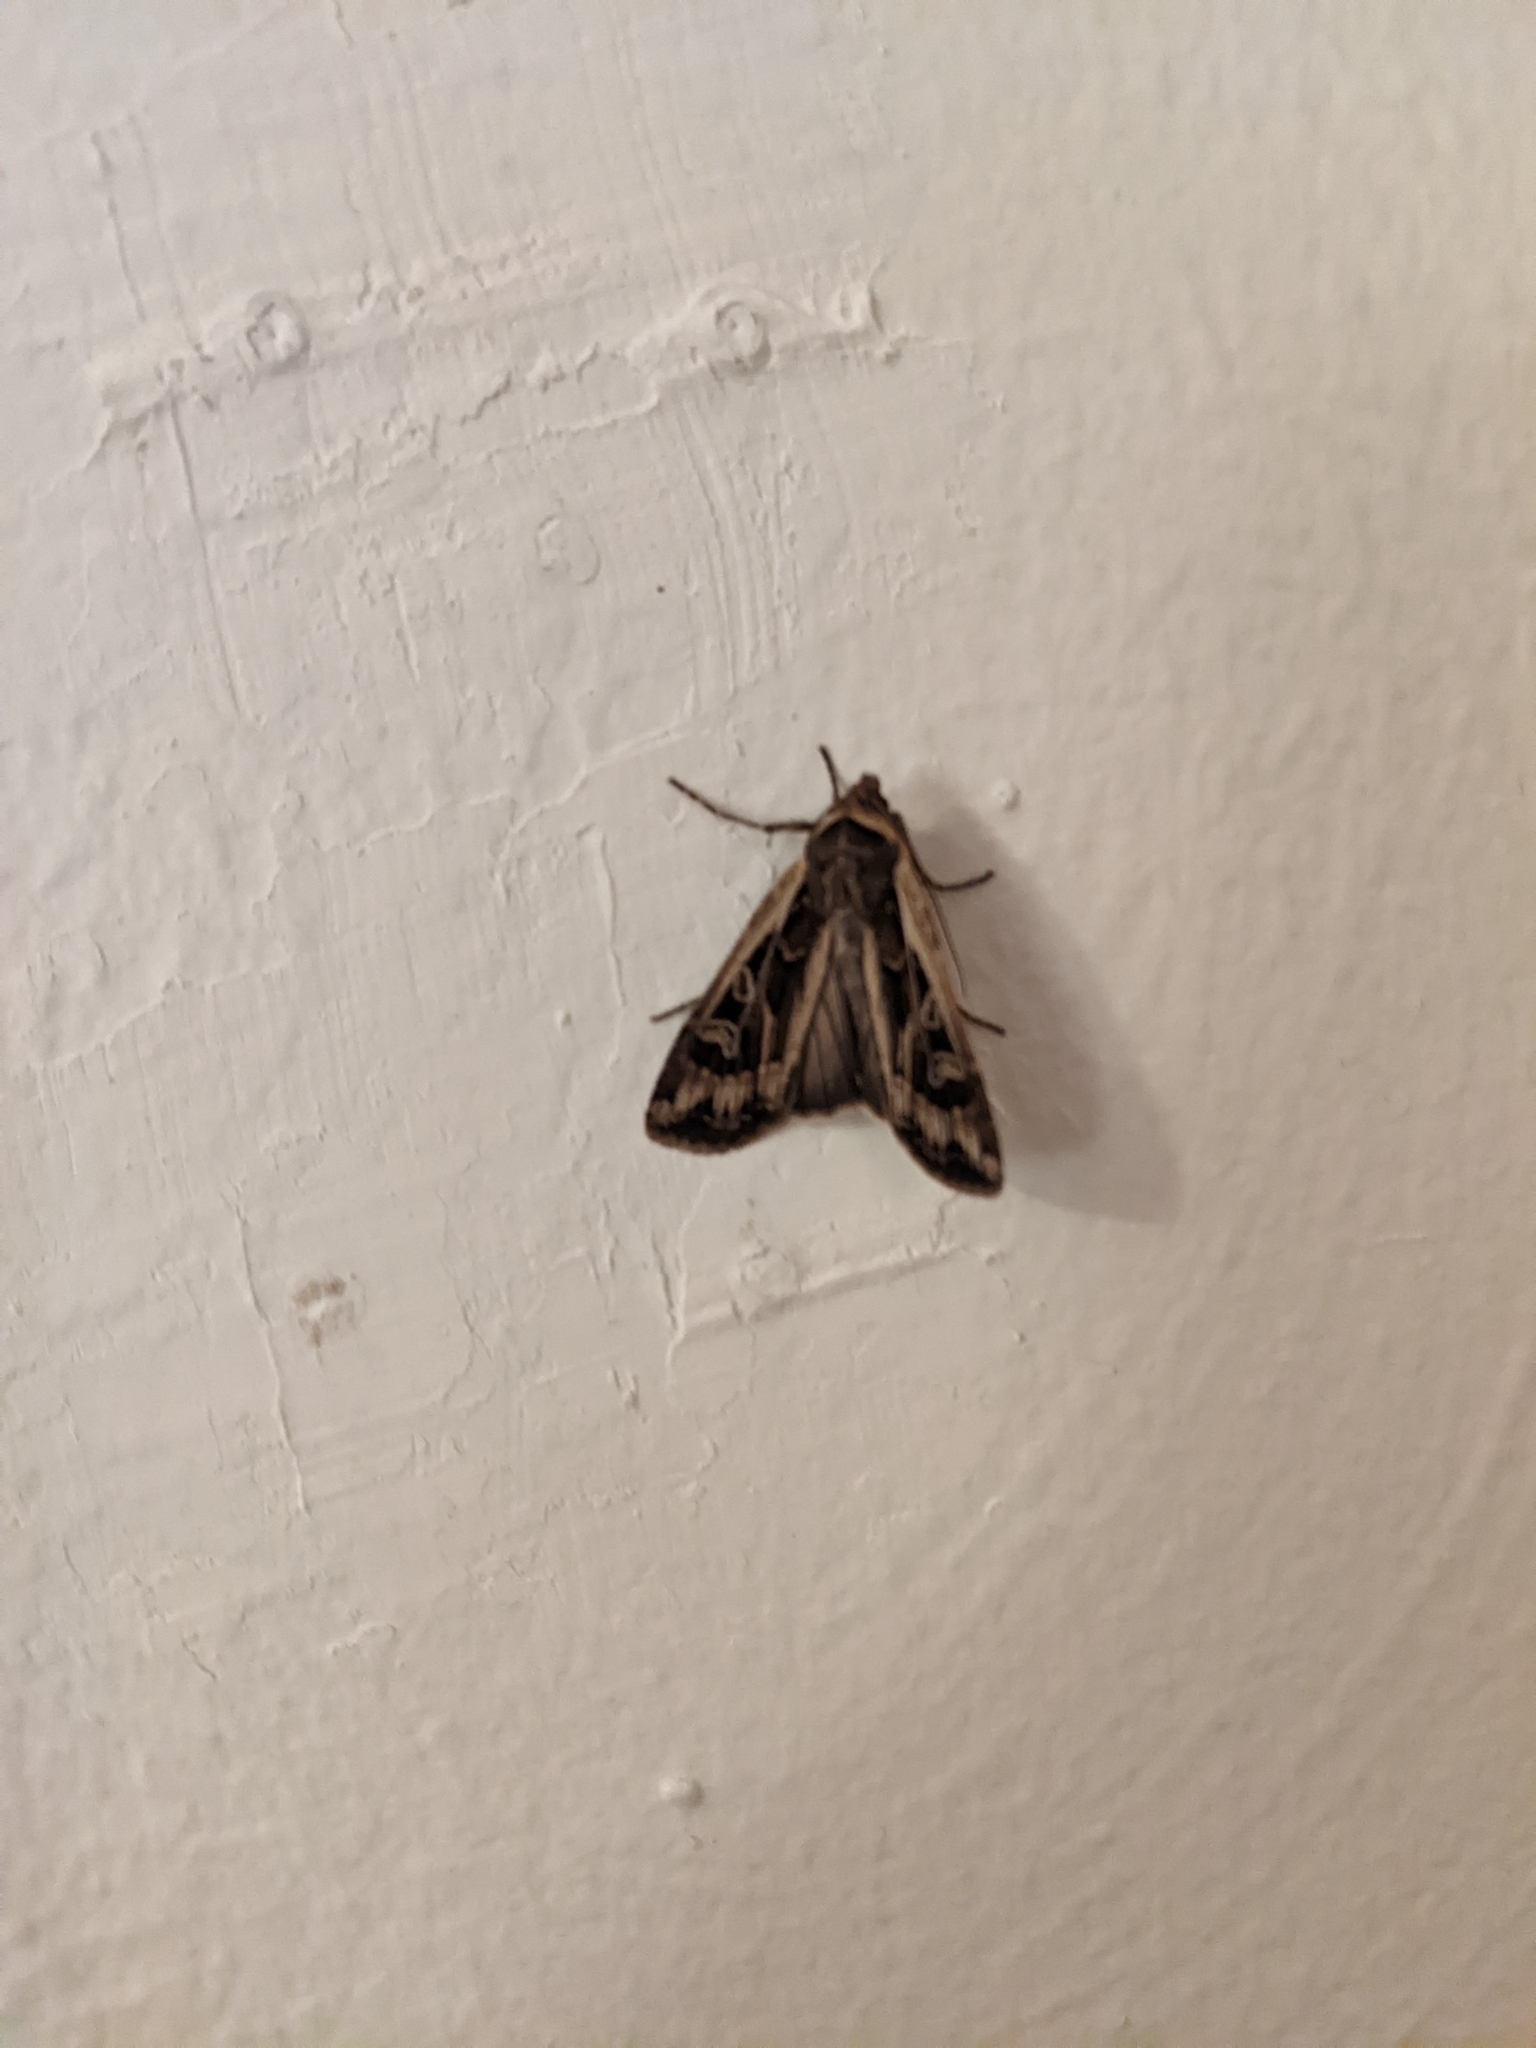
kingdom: Animalia
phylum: Arthropoda
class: Insecta
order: Lepidoptera
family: Noctuidae
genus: Euxoa
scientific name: Euxoa auxiliaris
